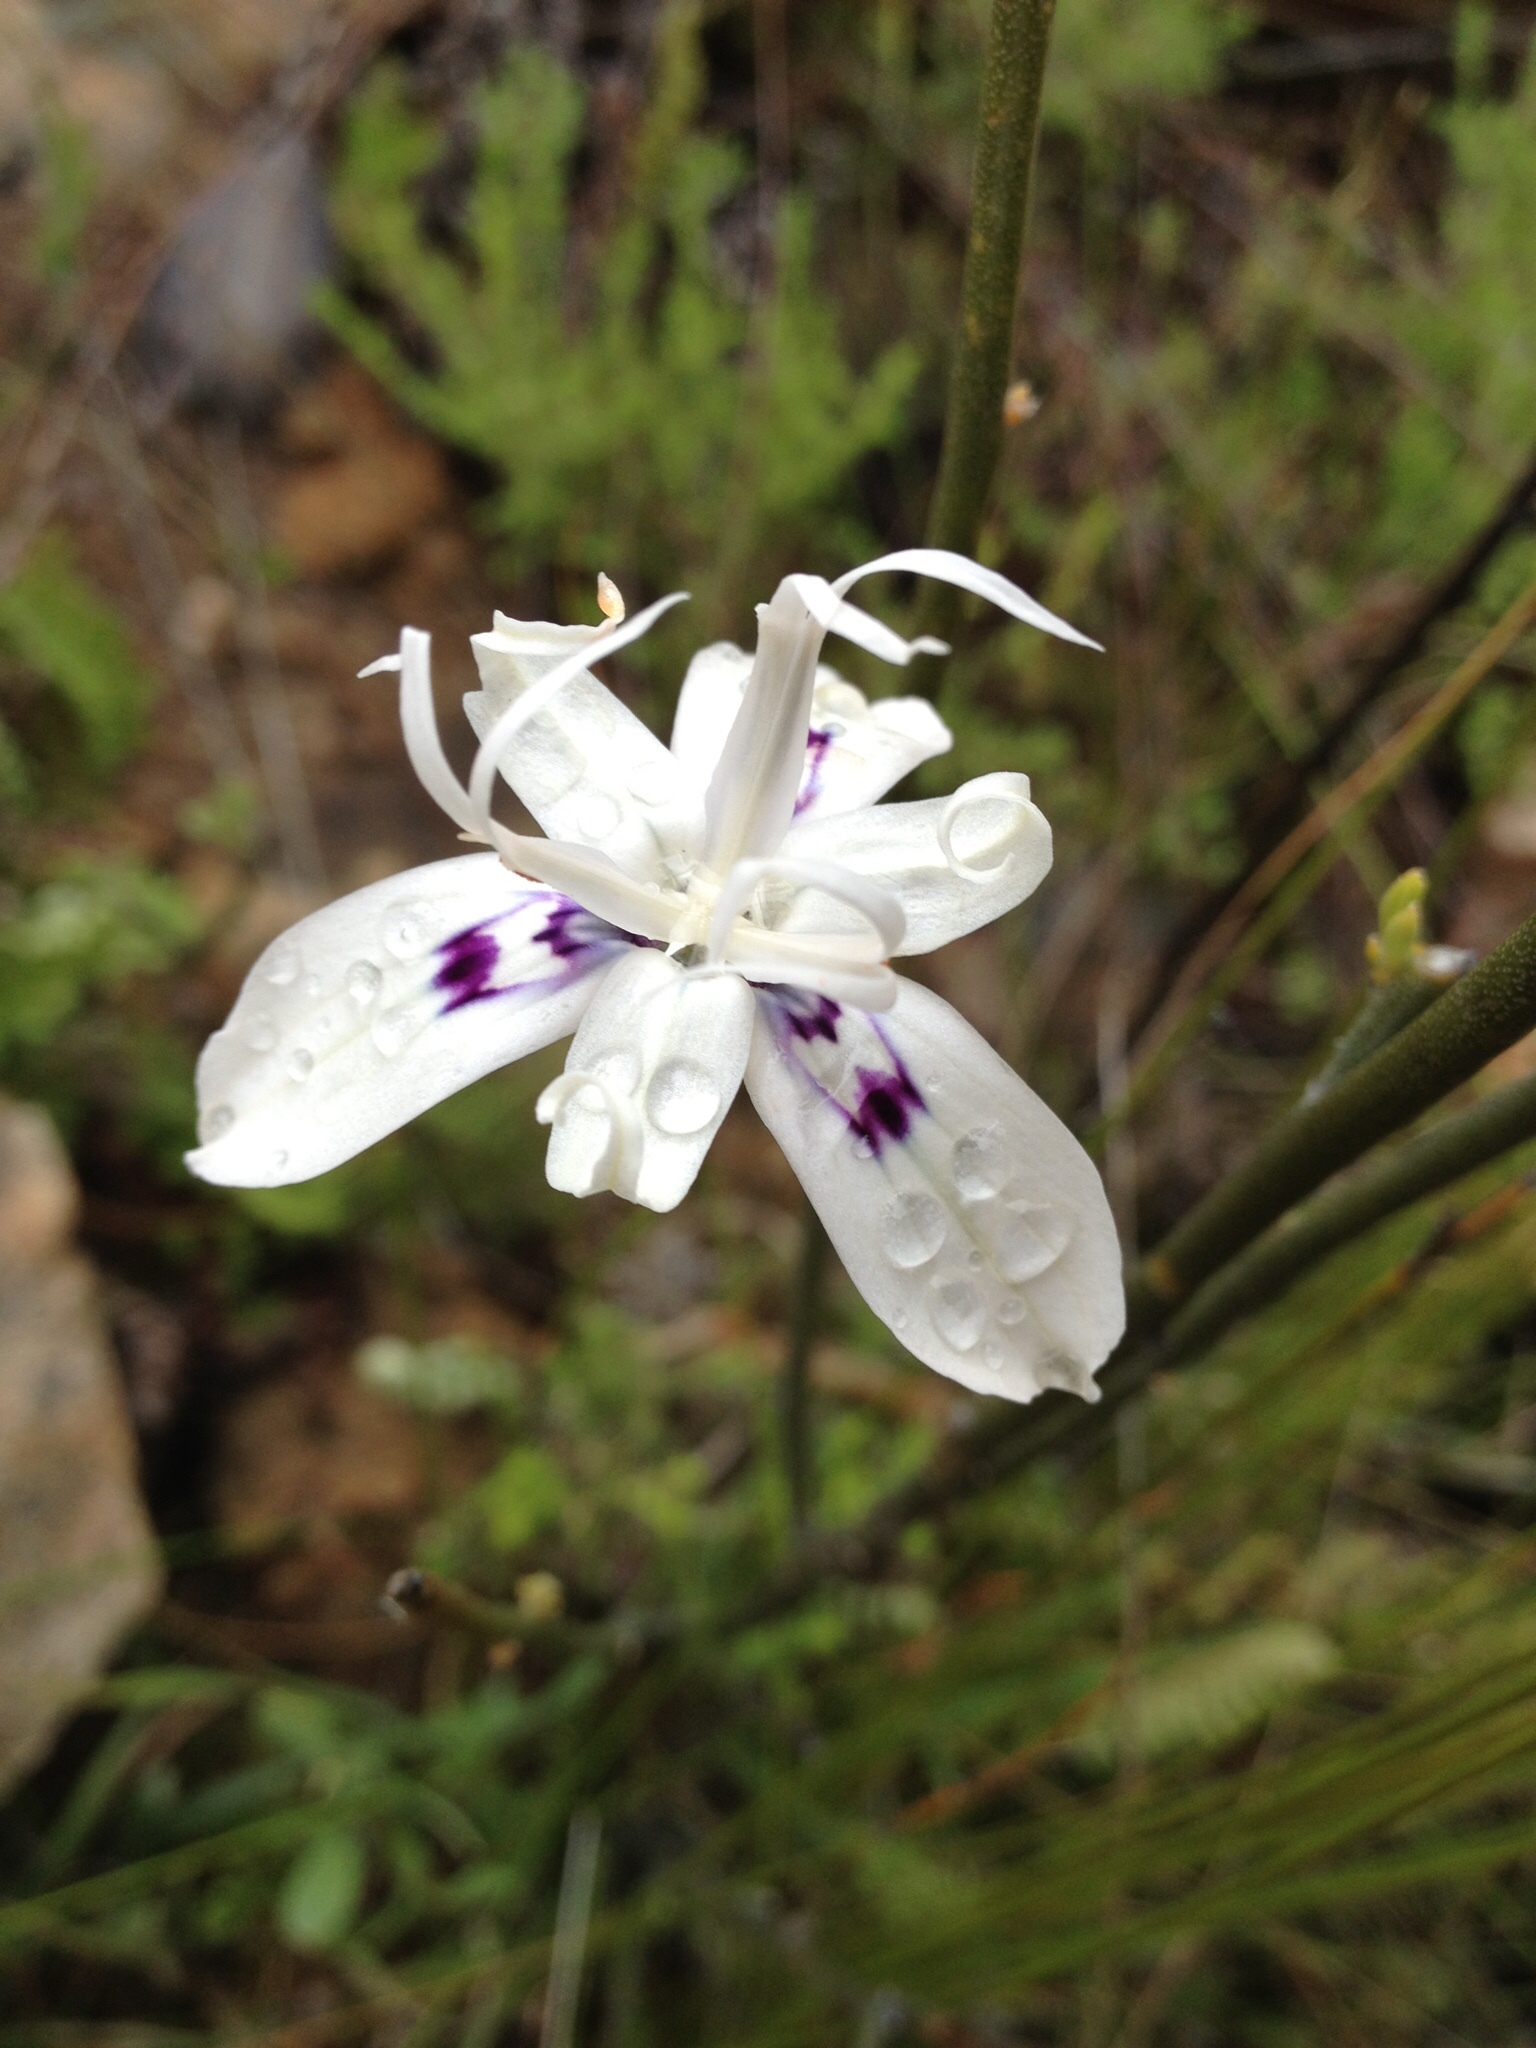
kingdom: Plantae
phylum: Tracheophyta
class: Liliopsida
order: Asparagales
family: Iridaceae
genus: Moraea
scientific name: Moraea barkerae
